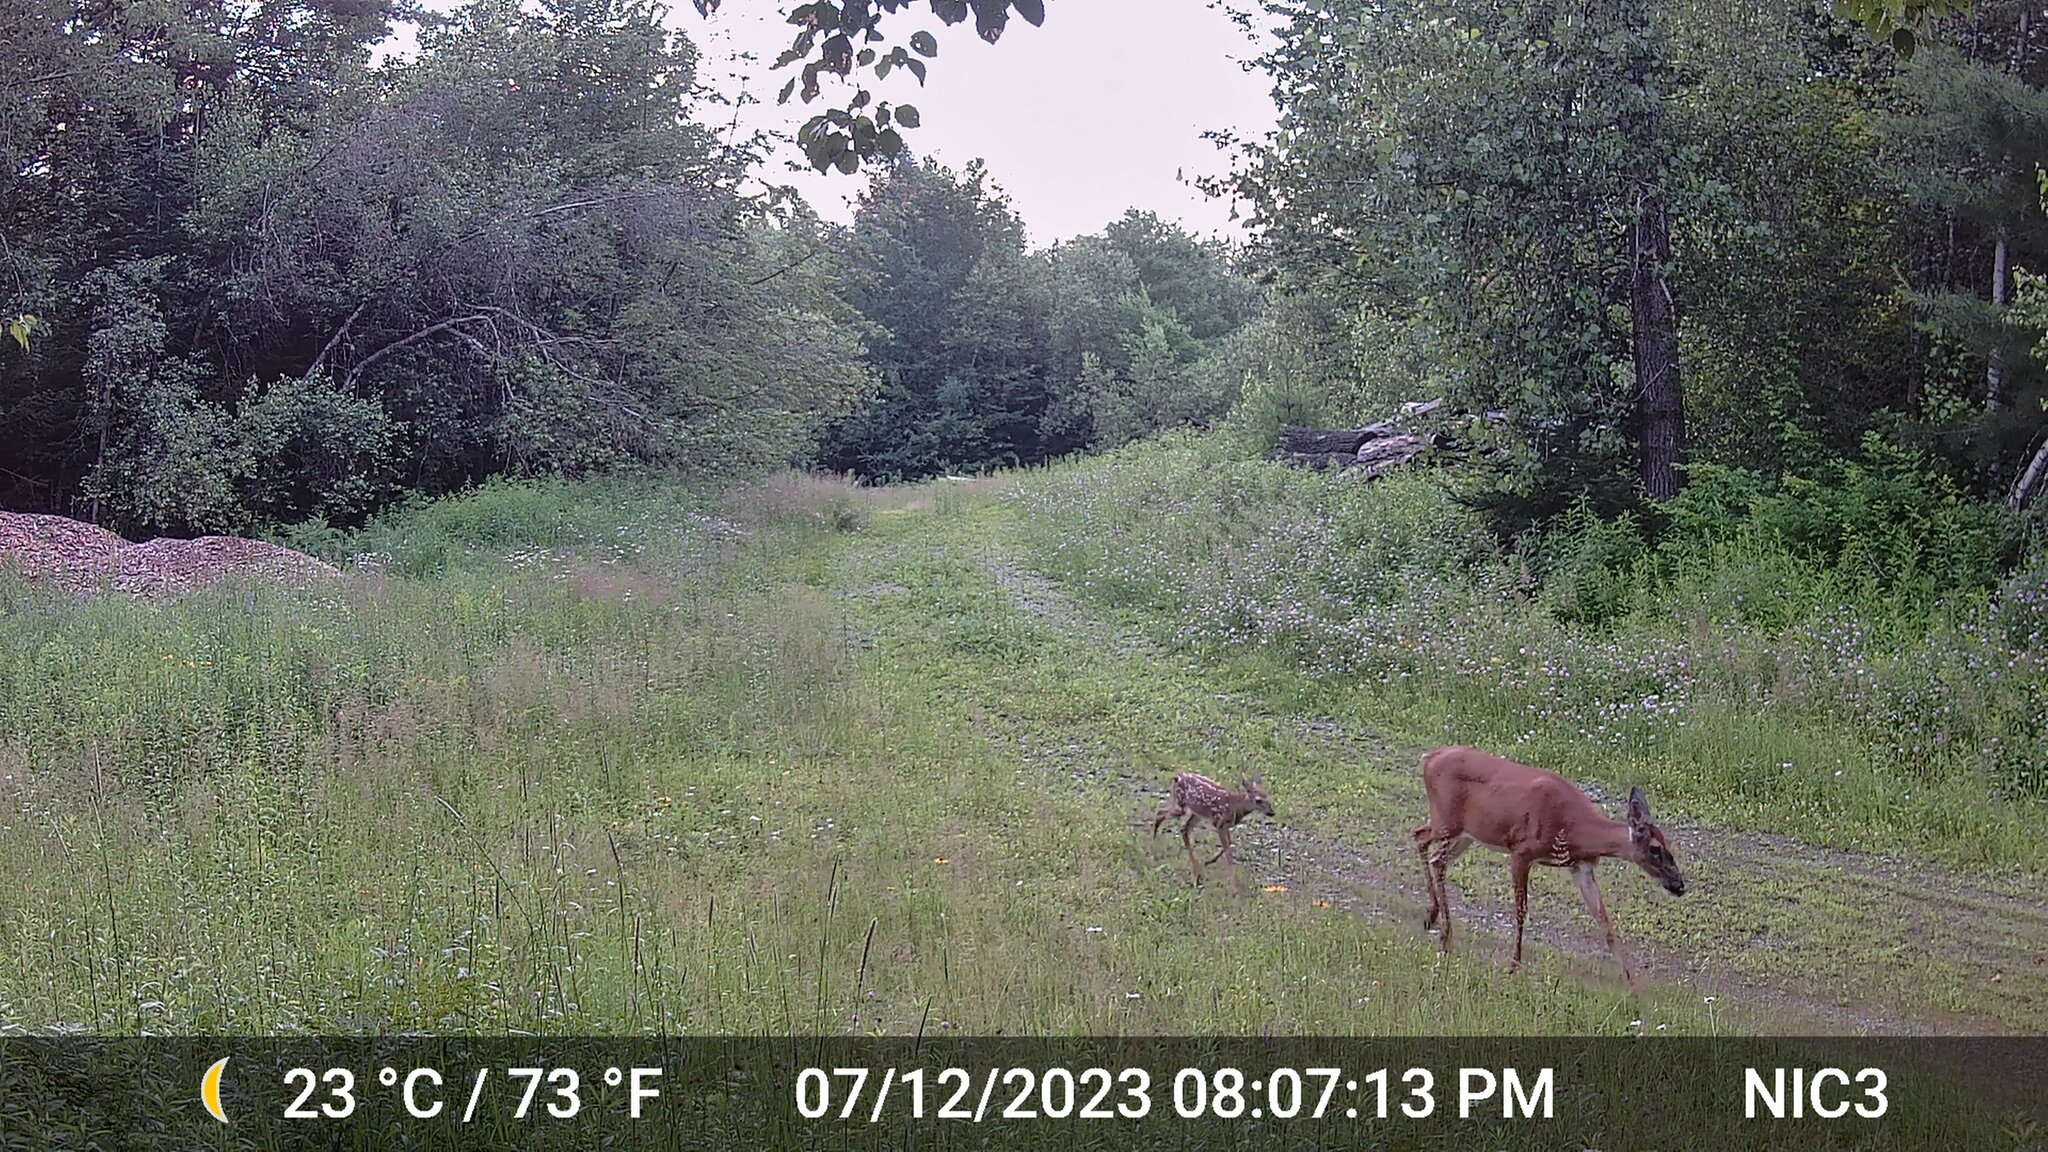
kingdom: Animalia
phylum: Chordata
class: Mammalia
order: Artiodactyla
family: Cervidae
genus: Odocoileus
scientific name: Odocoileus virginianus
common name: White-tailed deer
